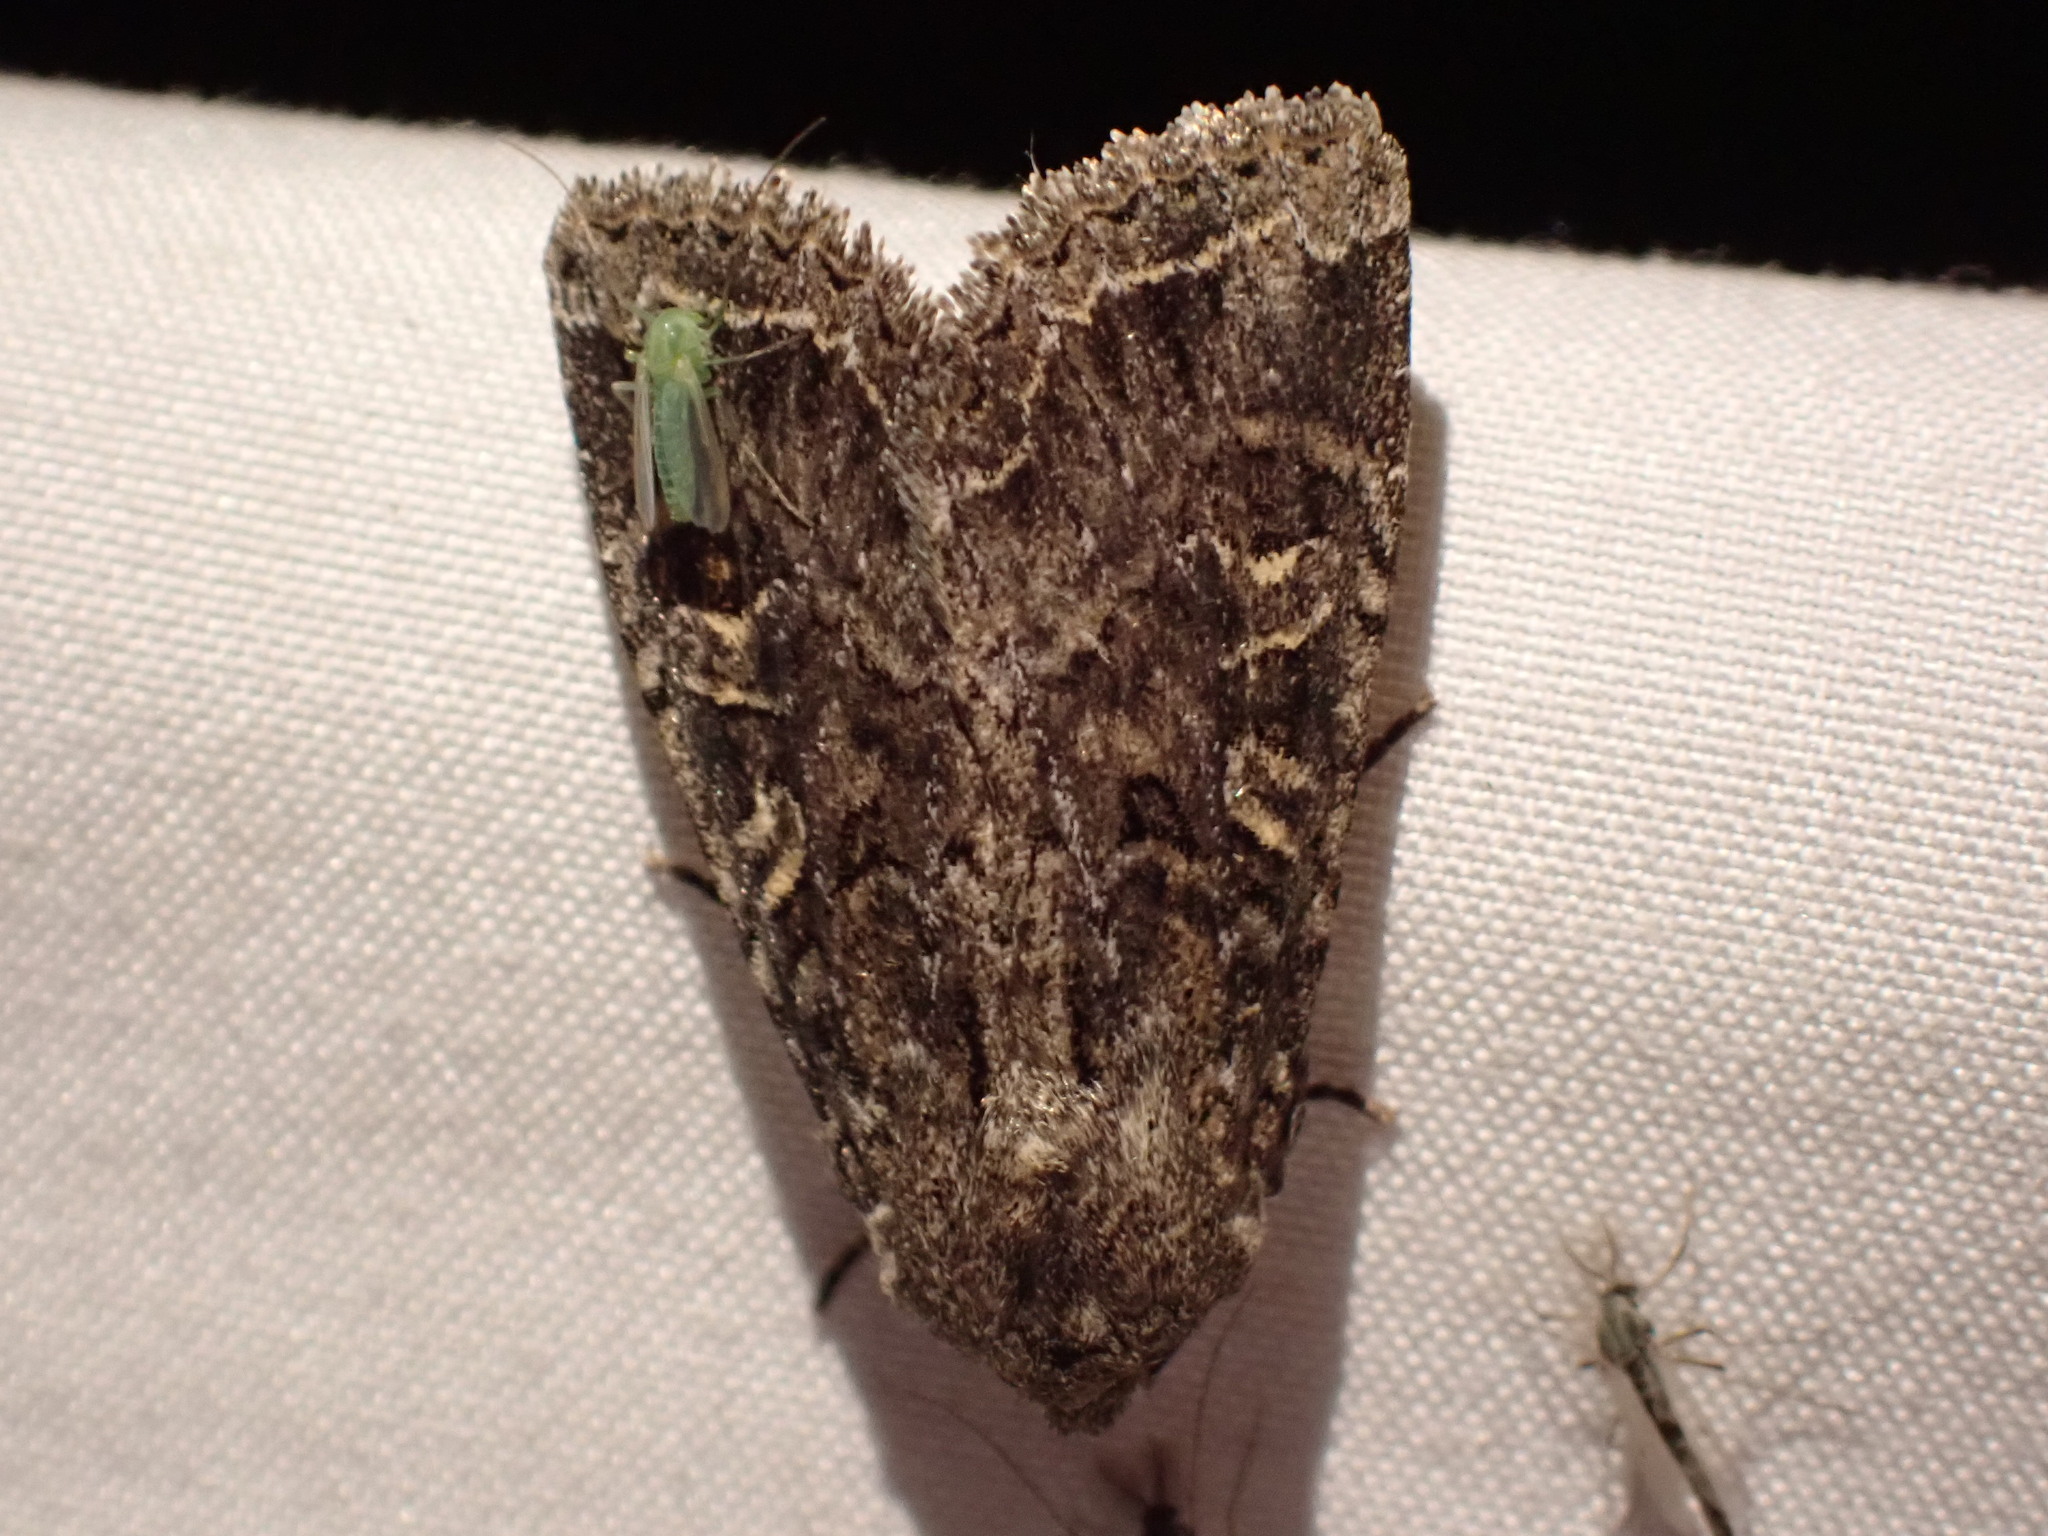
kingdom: Animalia
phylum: Arthropoda
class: Insecta
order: Lepidoptera
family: Noctuidae
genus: Apamea
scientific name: Apamea devastator
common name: Glassy cutworm
